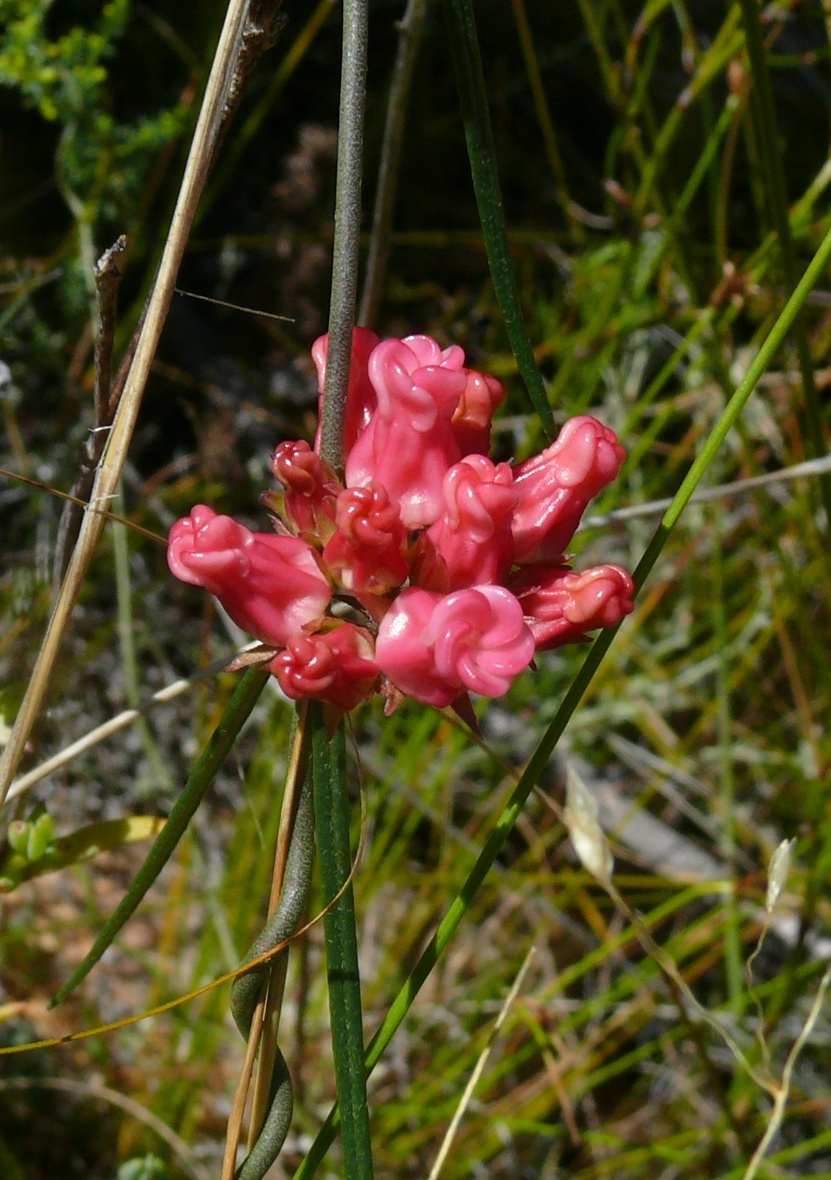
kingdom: Plantae
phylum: Tracheophyta
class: Magnoliopsida
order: Gentianales
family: Apocynaceae
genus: Microloma
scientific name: Microloma tenuifolium
